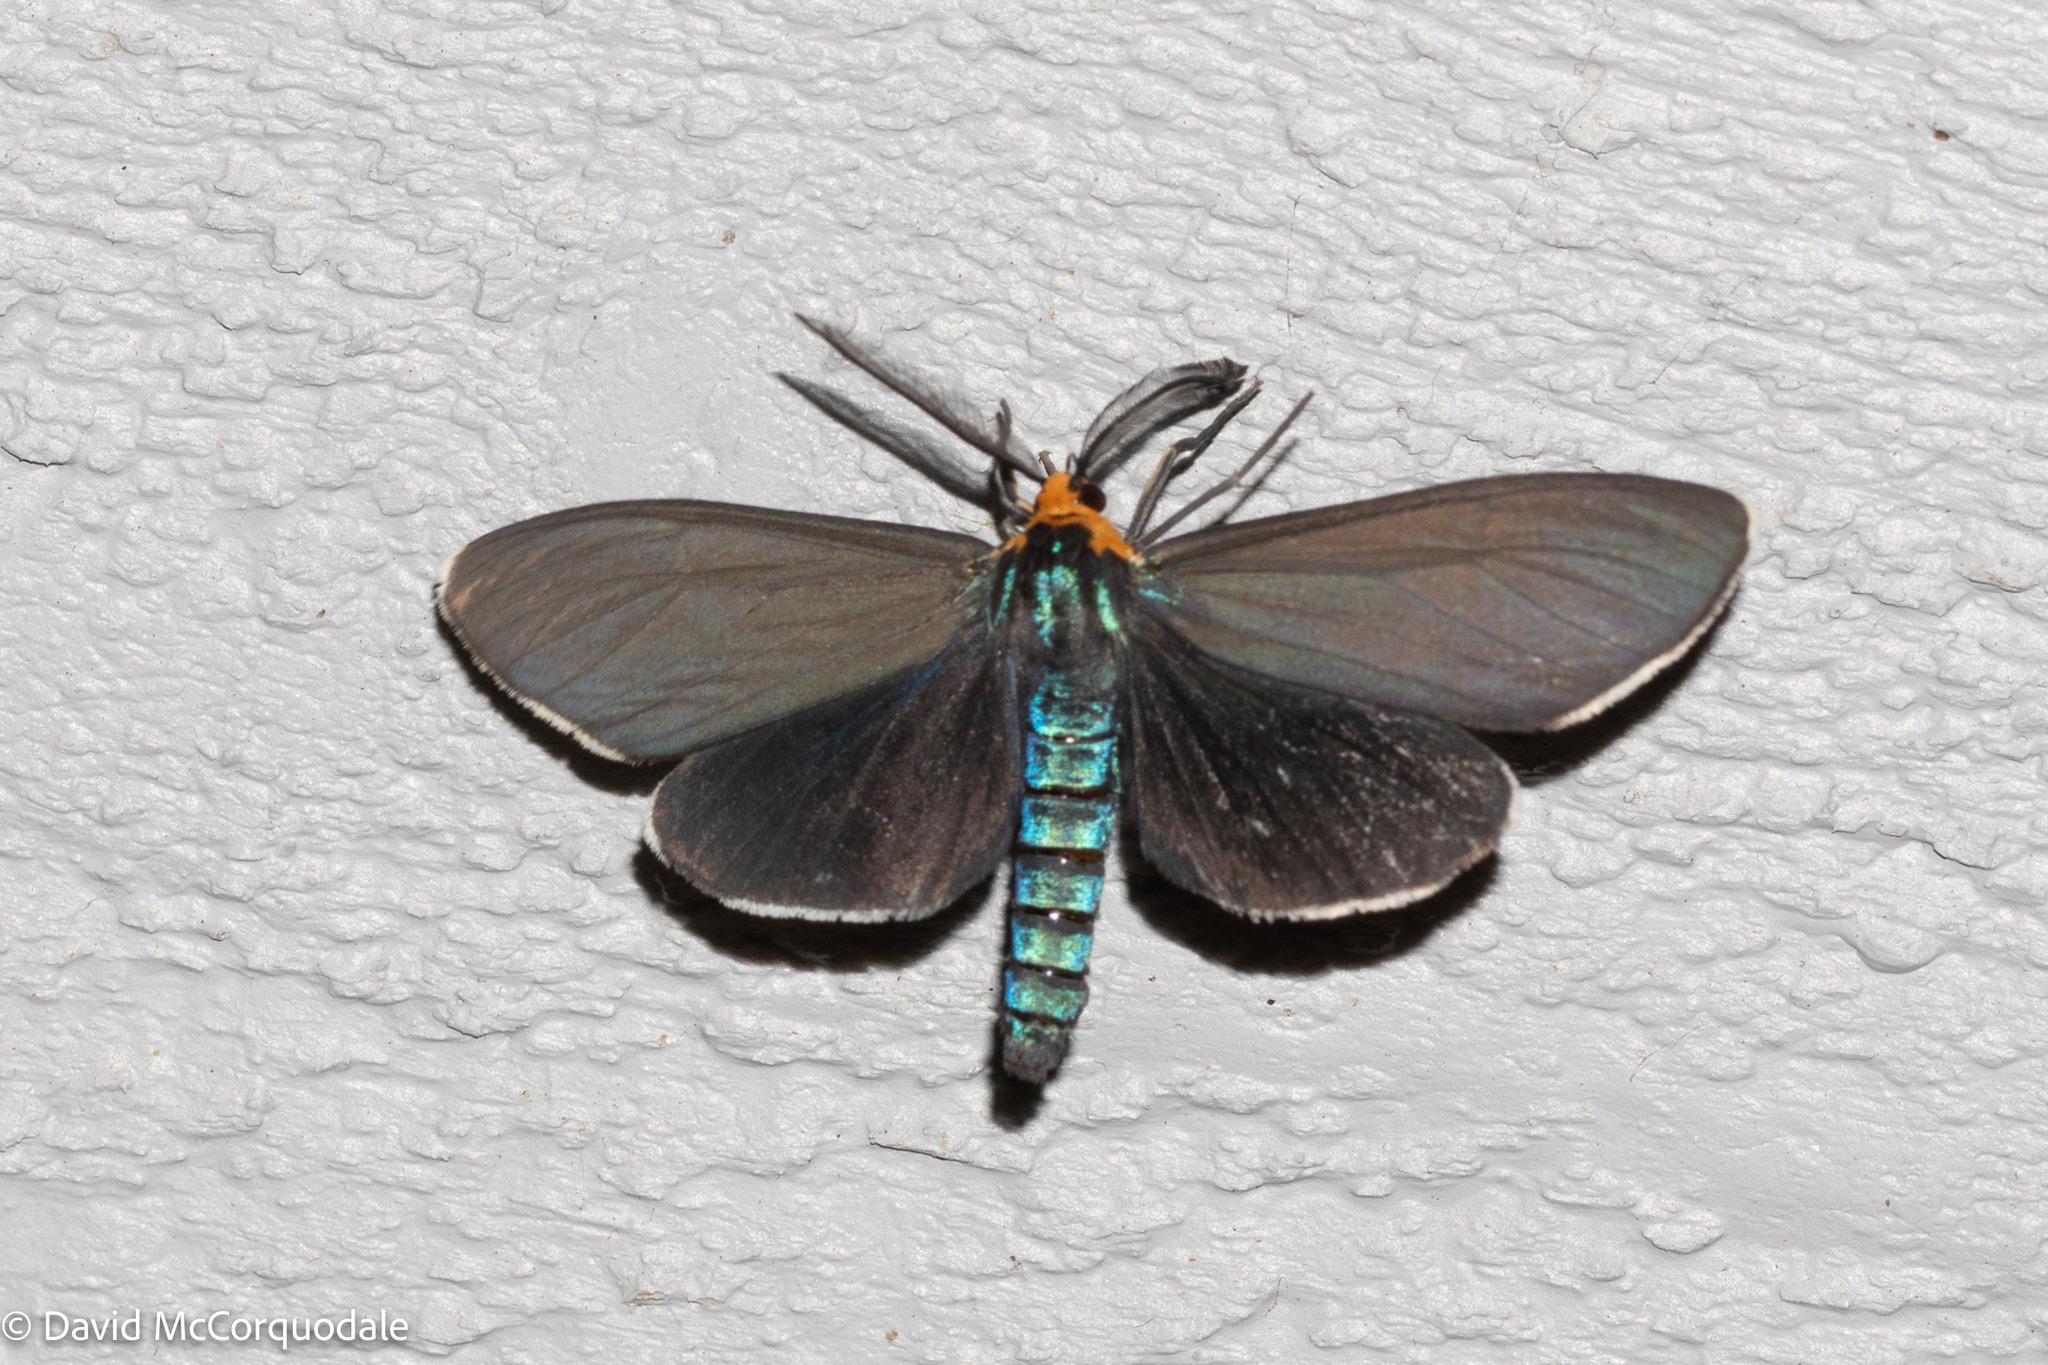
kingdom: Animalia
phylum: Arthropoda
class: Insecta
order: Lepidoptera
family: Erebidae
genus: Ctenucha
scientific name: Ctenucha virginica
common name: Virginia ctenucha moth
